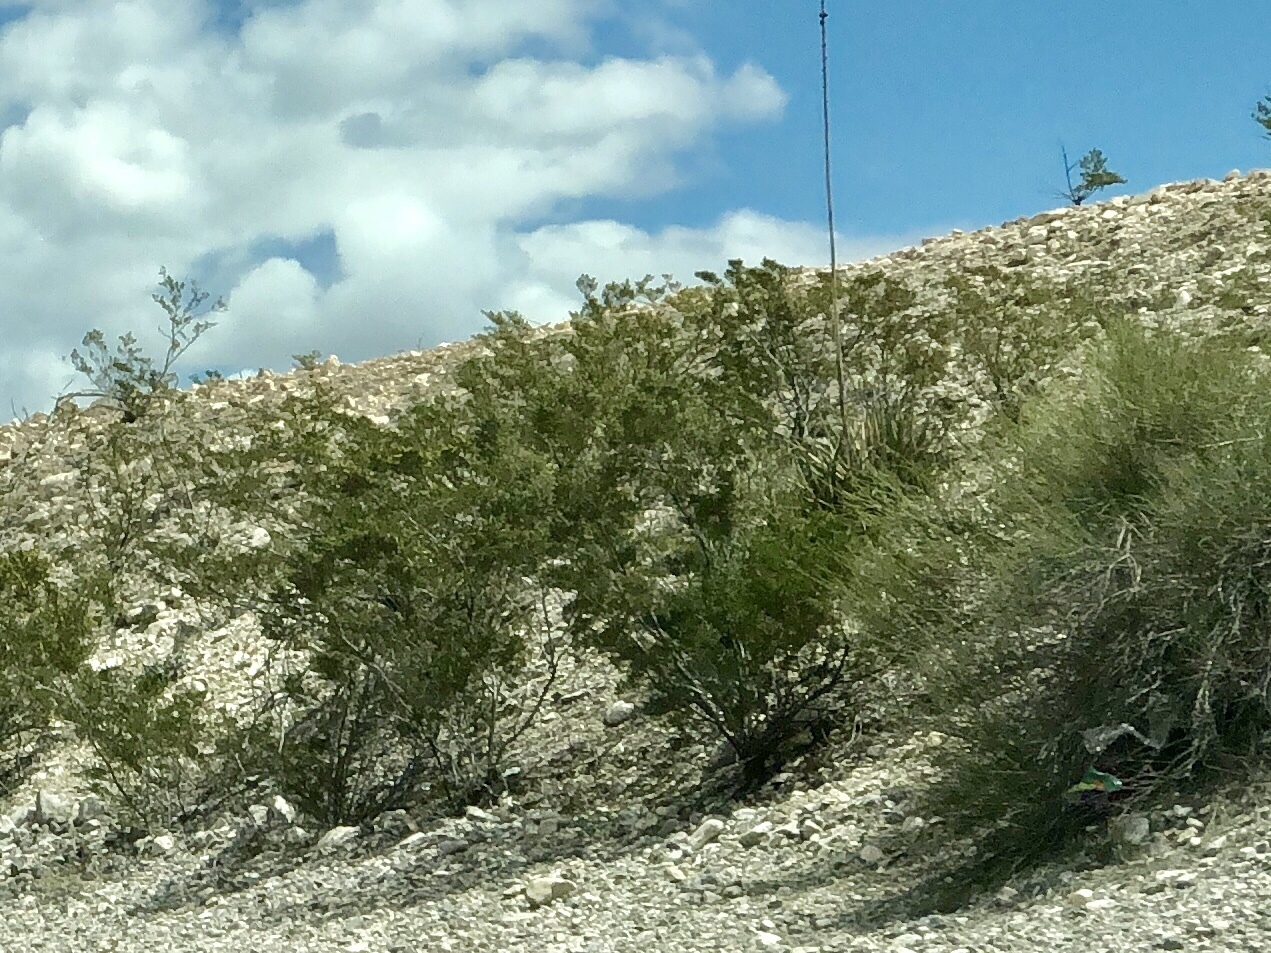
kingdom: Plantae
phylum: Tracheophyta
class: Magnoliopsida
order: Zygophyllales
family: Zygophyllaceae
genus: Larrea
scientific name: Larrea tridentata
